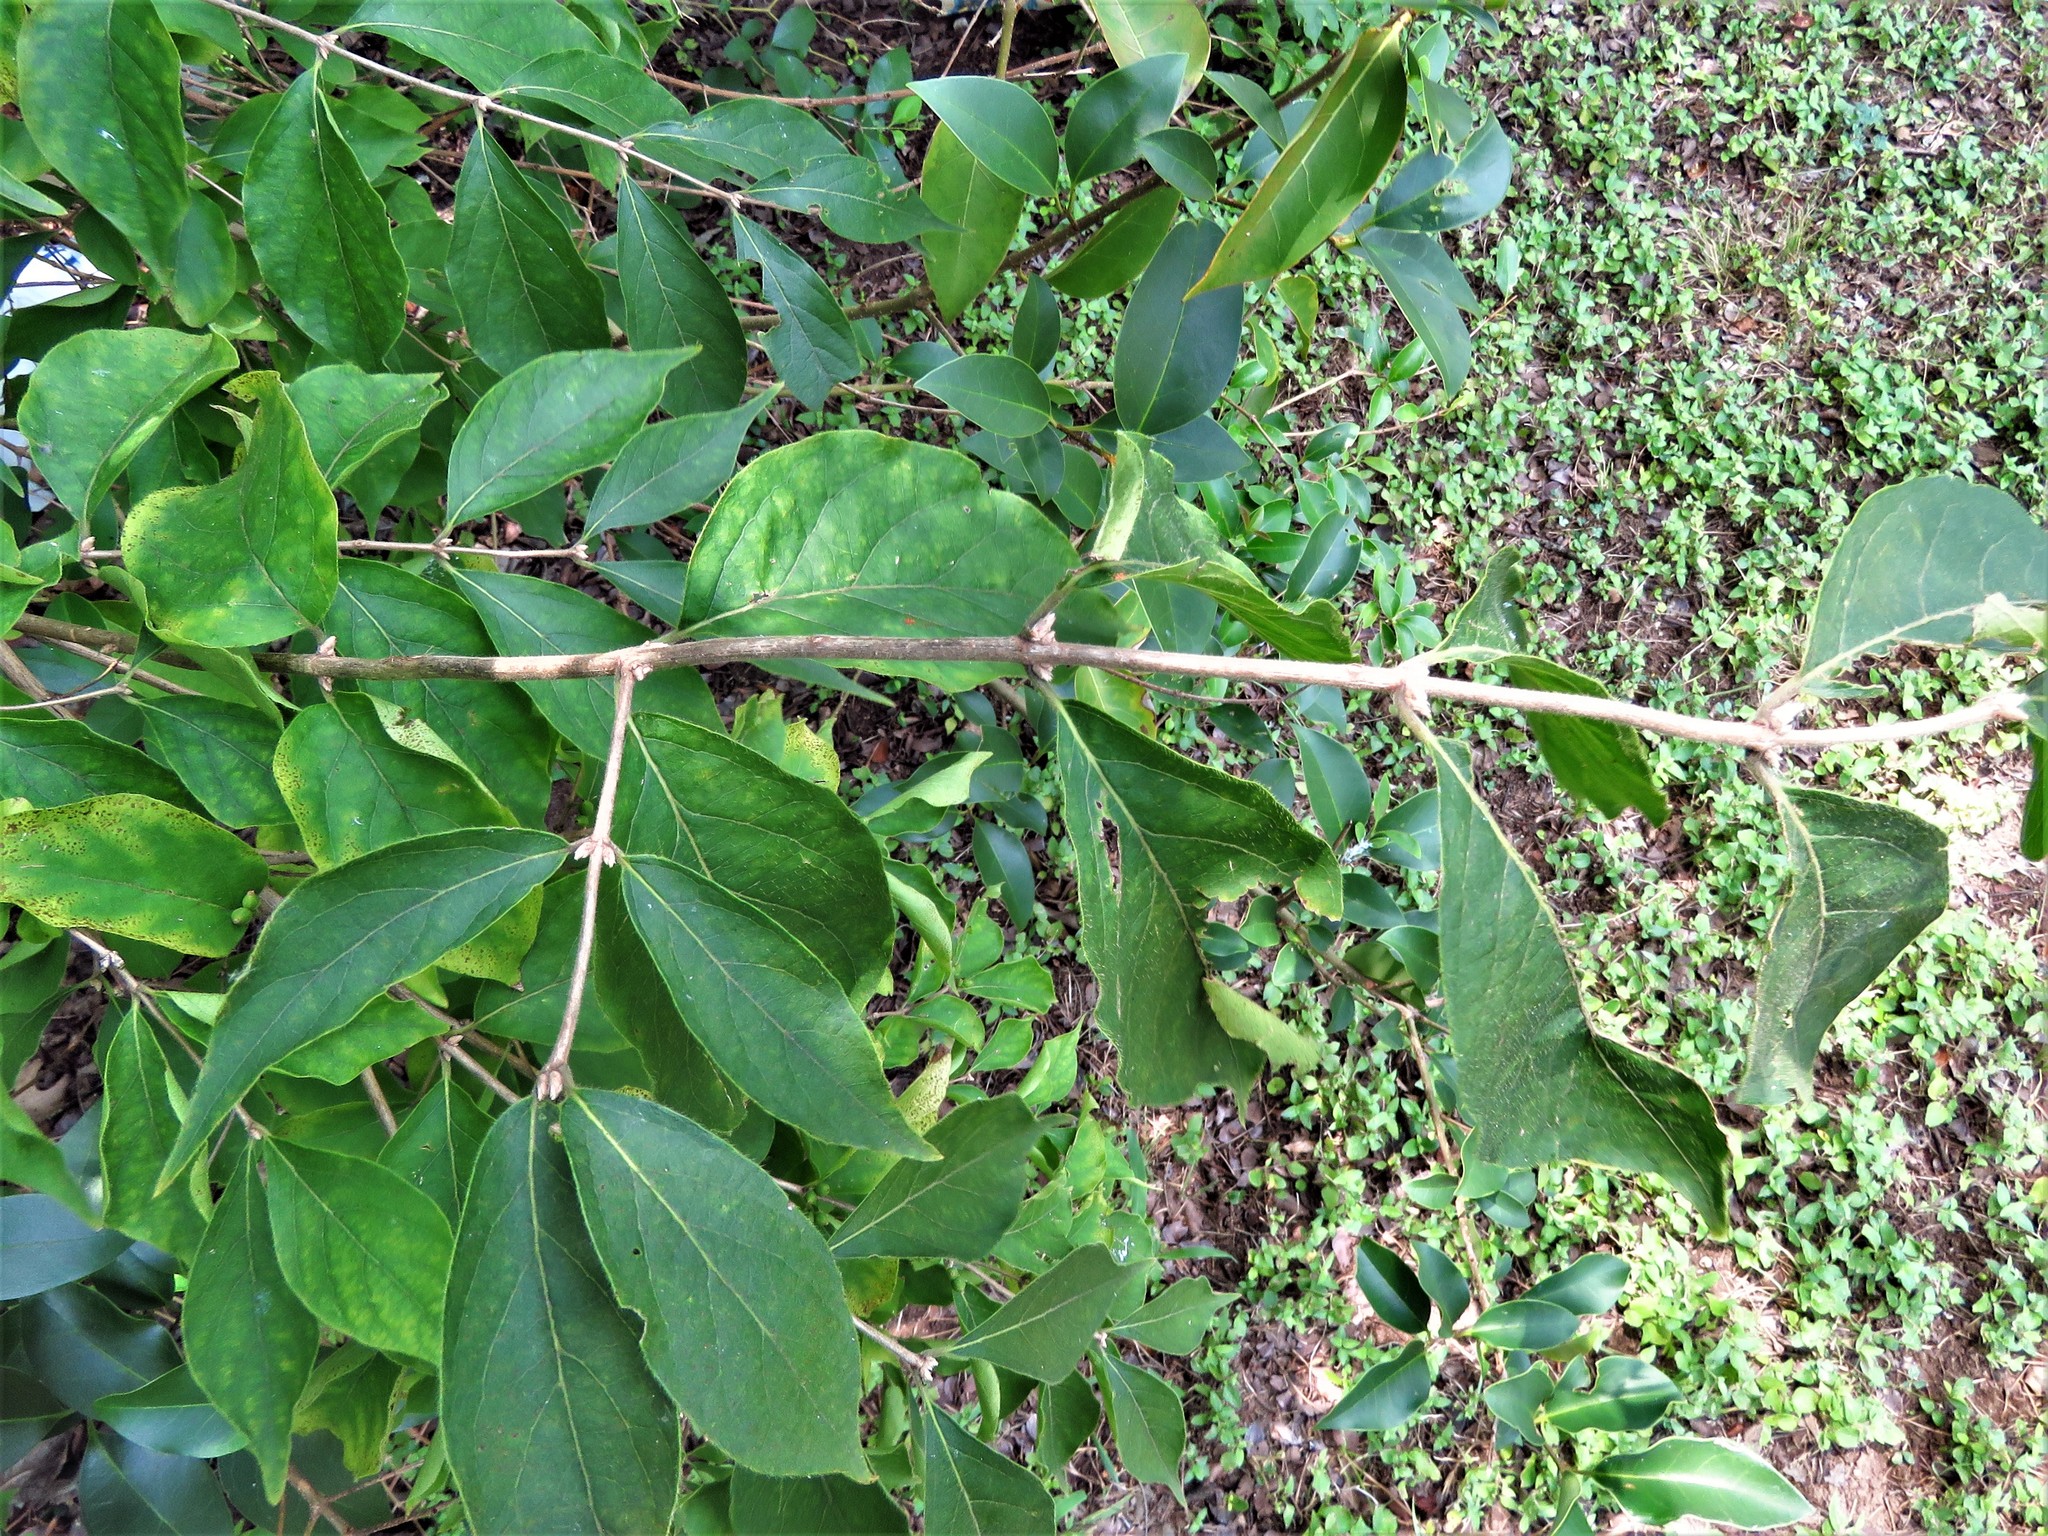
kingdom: Plantae
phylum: Tracheophyta
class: Magnoliopsida
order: Dipsacales
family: Caprifoliaceae
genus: Lonicera
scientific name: Lonicera maackii
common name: Amur honeysuckle
